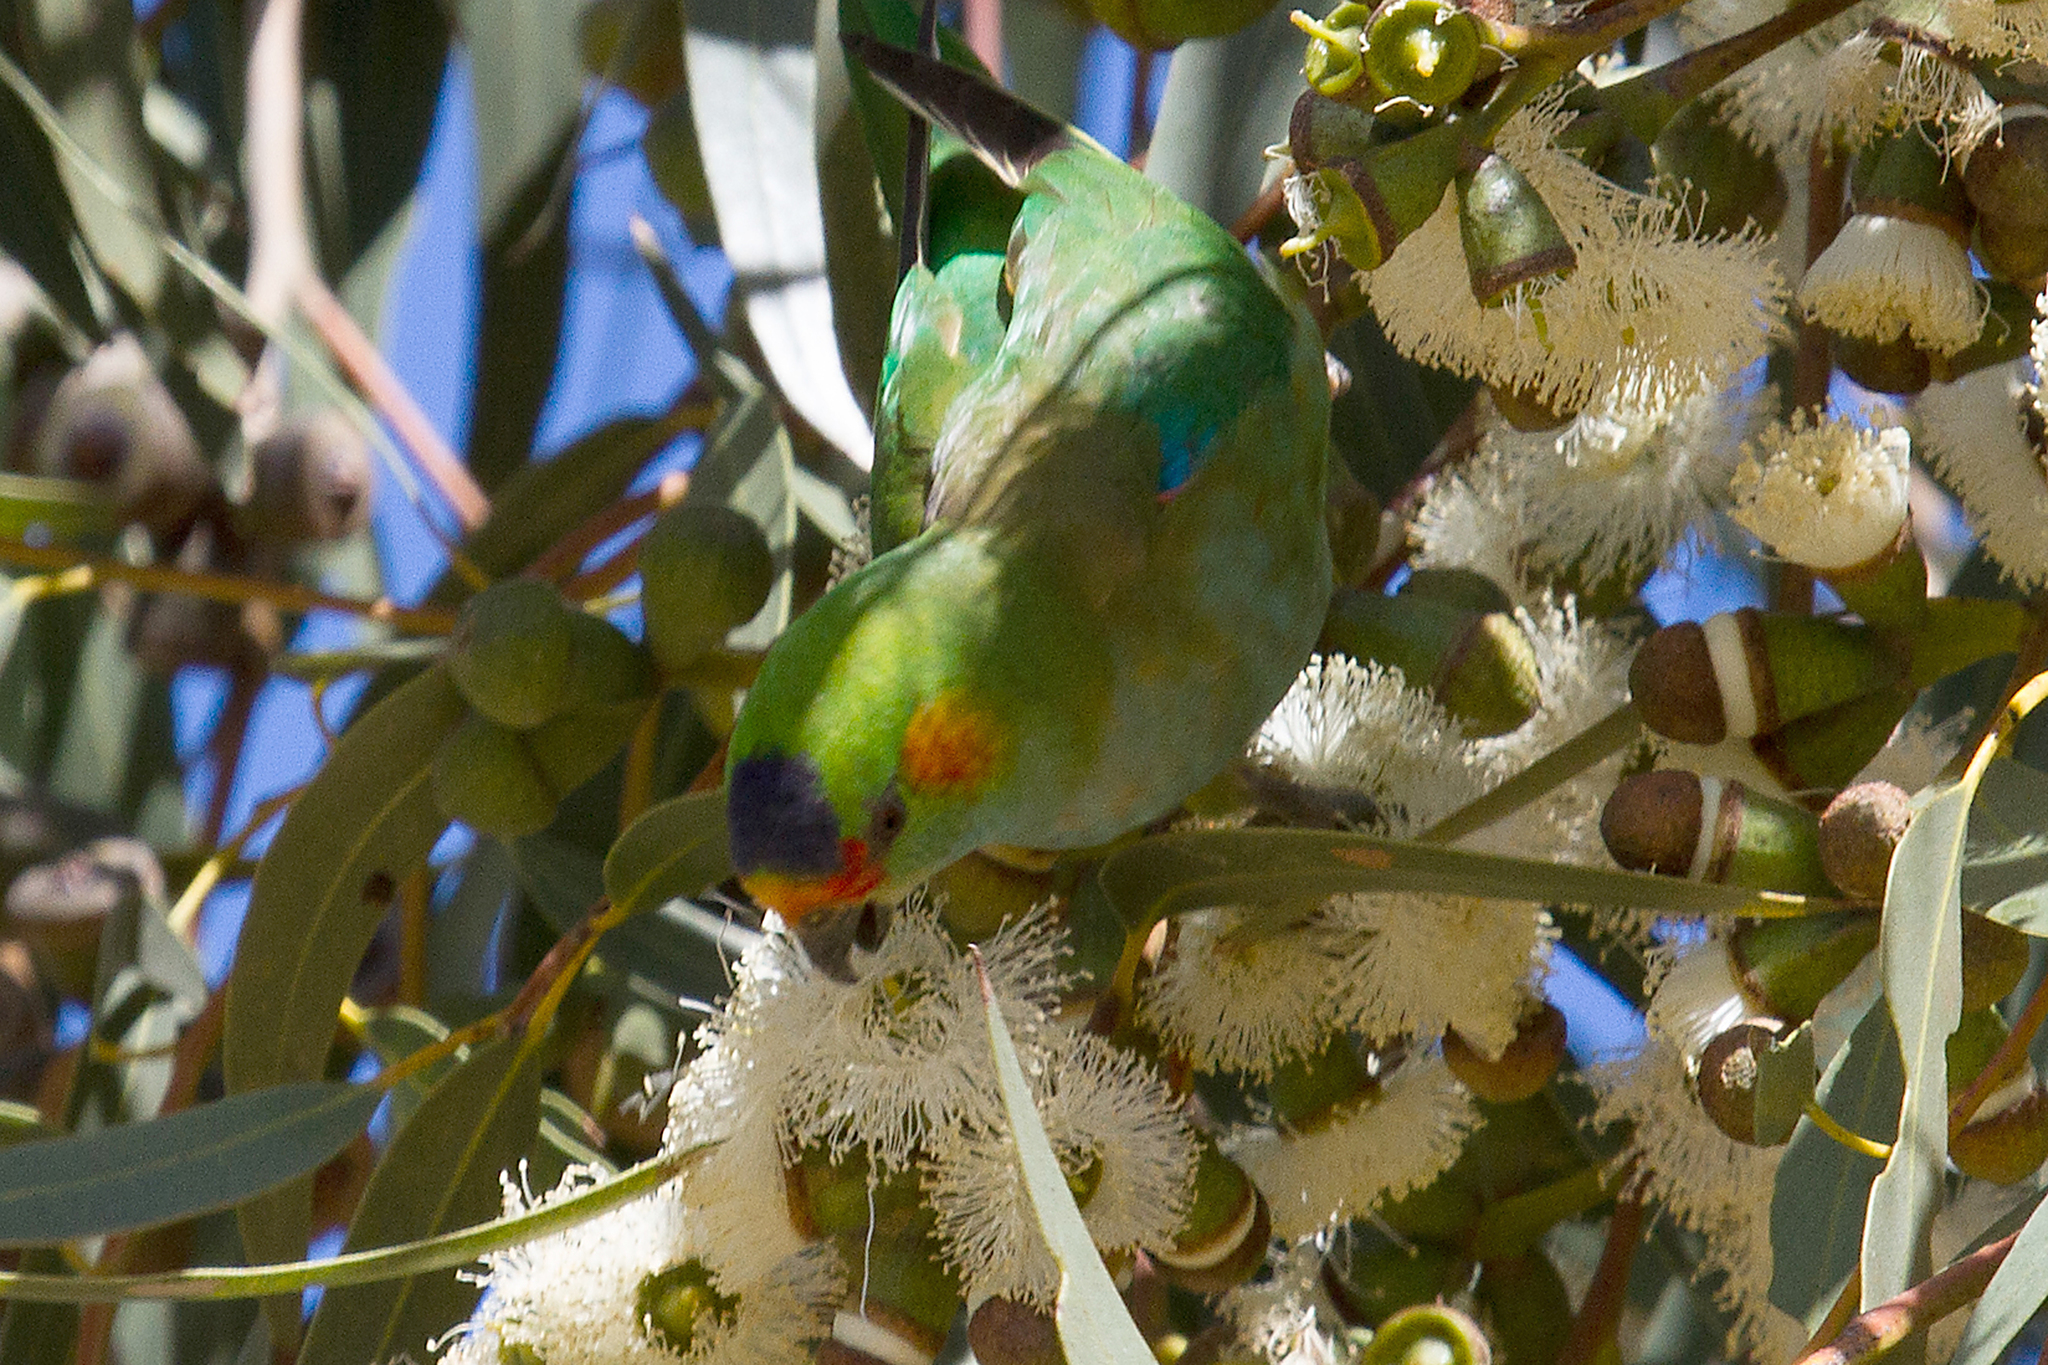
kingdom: Animalia
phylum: Chordata
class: Aves
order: Psittaciformes
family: Psittaculidae
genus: Parvipsitta
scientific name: Parvipsitta porphyrocephala
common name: Purple-crowned lorikeet
